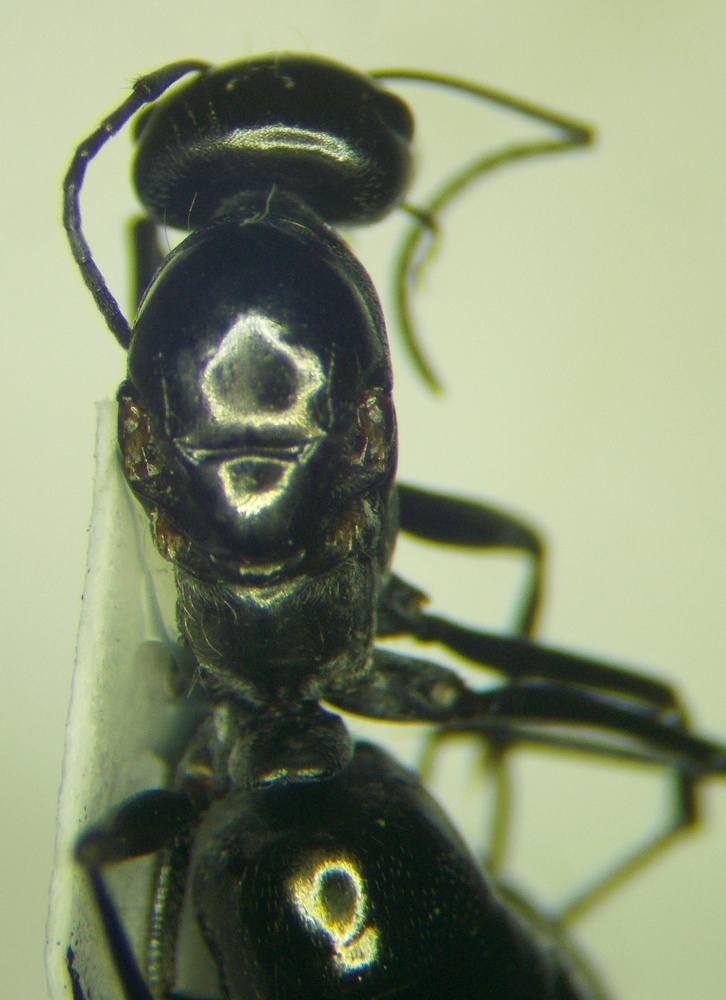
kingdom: Animalia
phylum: Arthropoda
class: Insecta
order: Hymenoptera
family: Formicidae
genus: Cataglyphis
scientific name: Cataglyphis aenescens
